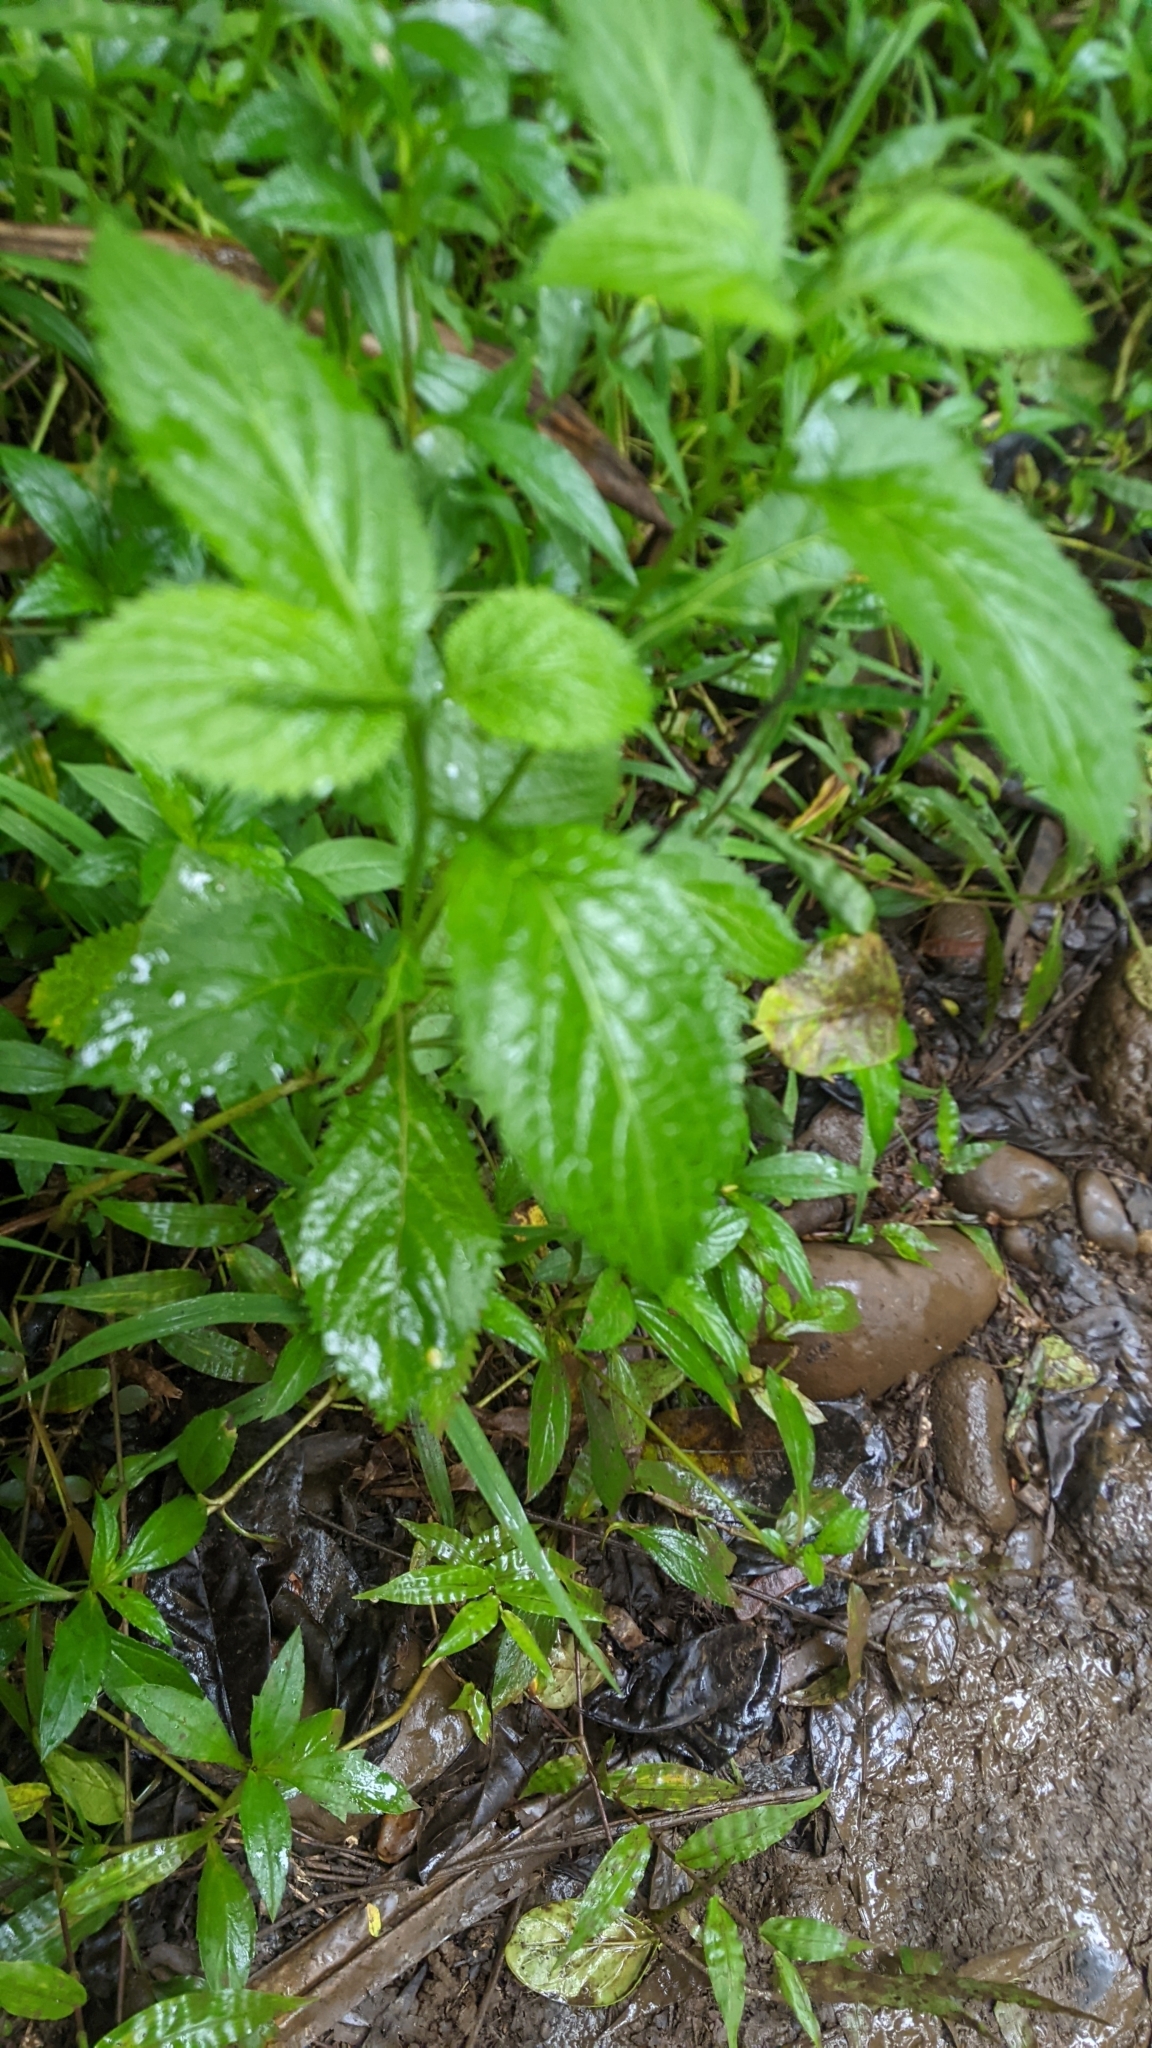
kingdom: Plantae
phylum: Tracheophyta
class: Magnoliopsida
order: Lamiales
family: Verbenaceae
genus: Stachytarpheta
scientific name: Stachytarpheta cayennensis
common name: Cayenne porterweed
